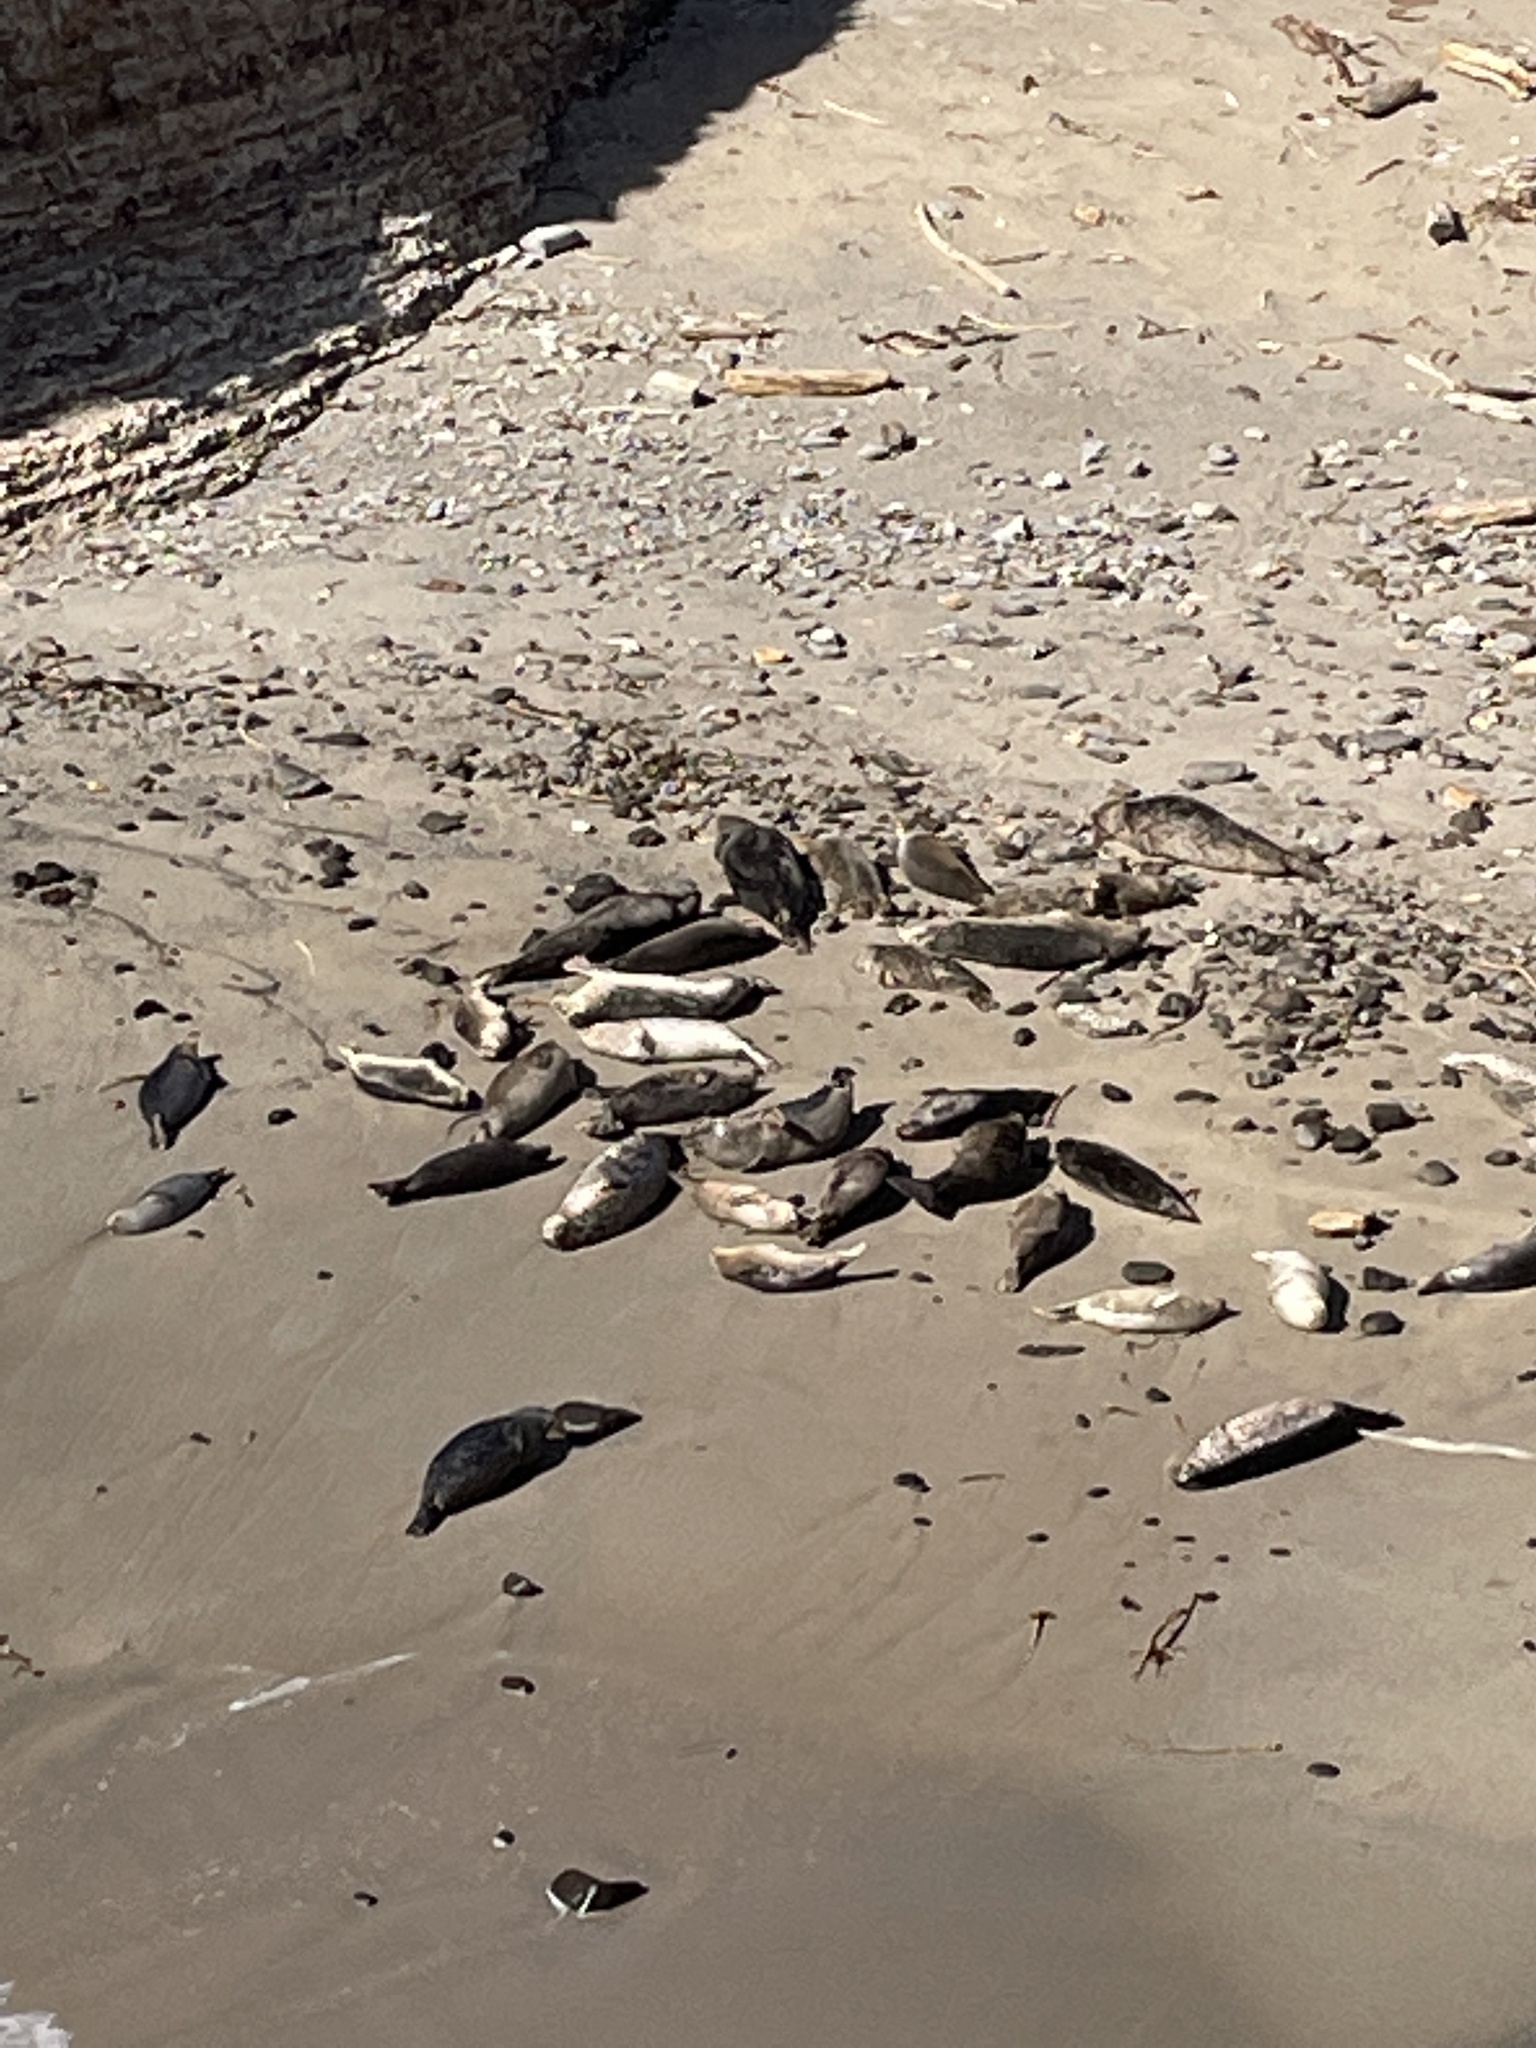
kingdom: Animalia
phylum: Chordata
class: Mammalia
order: Carnivora
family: Phocidae
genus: Phoca
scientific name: Phoca vitulina
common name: Harbor seal
